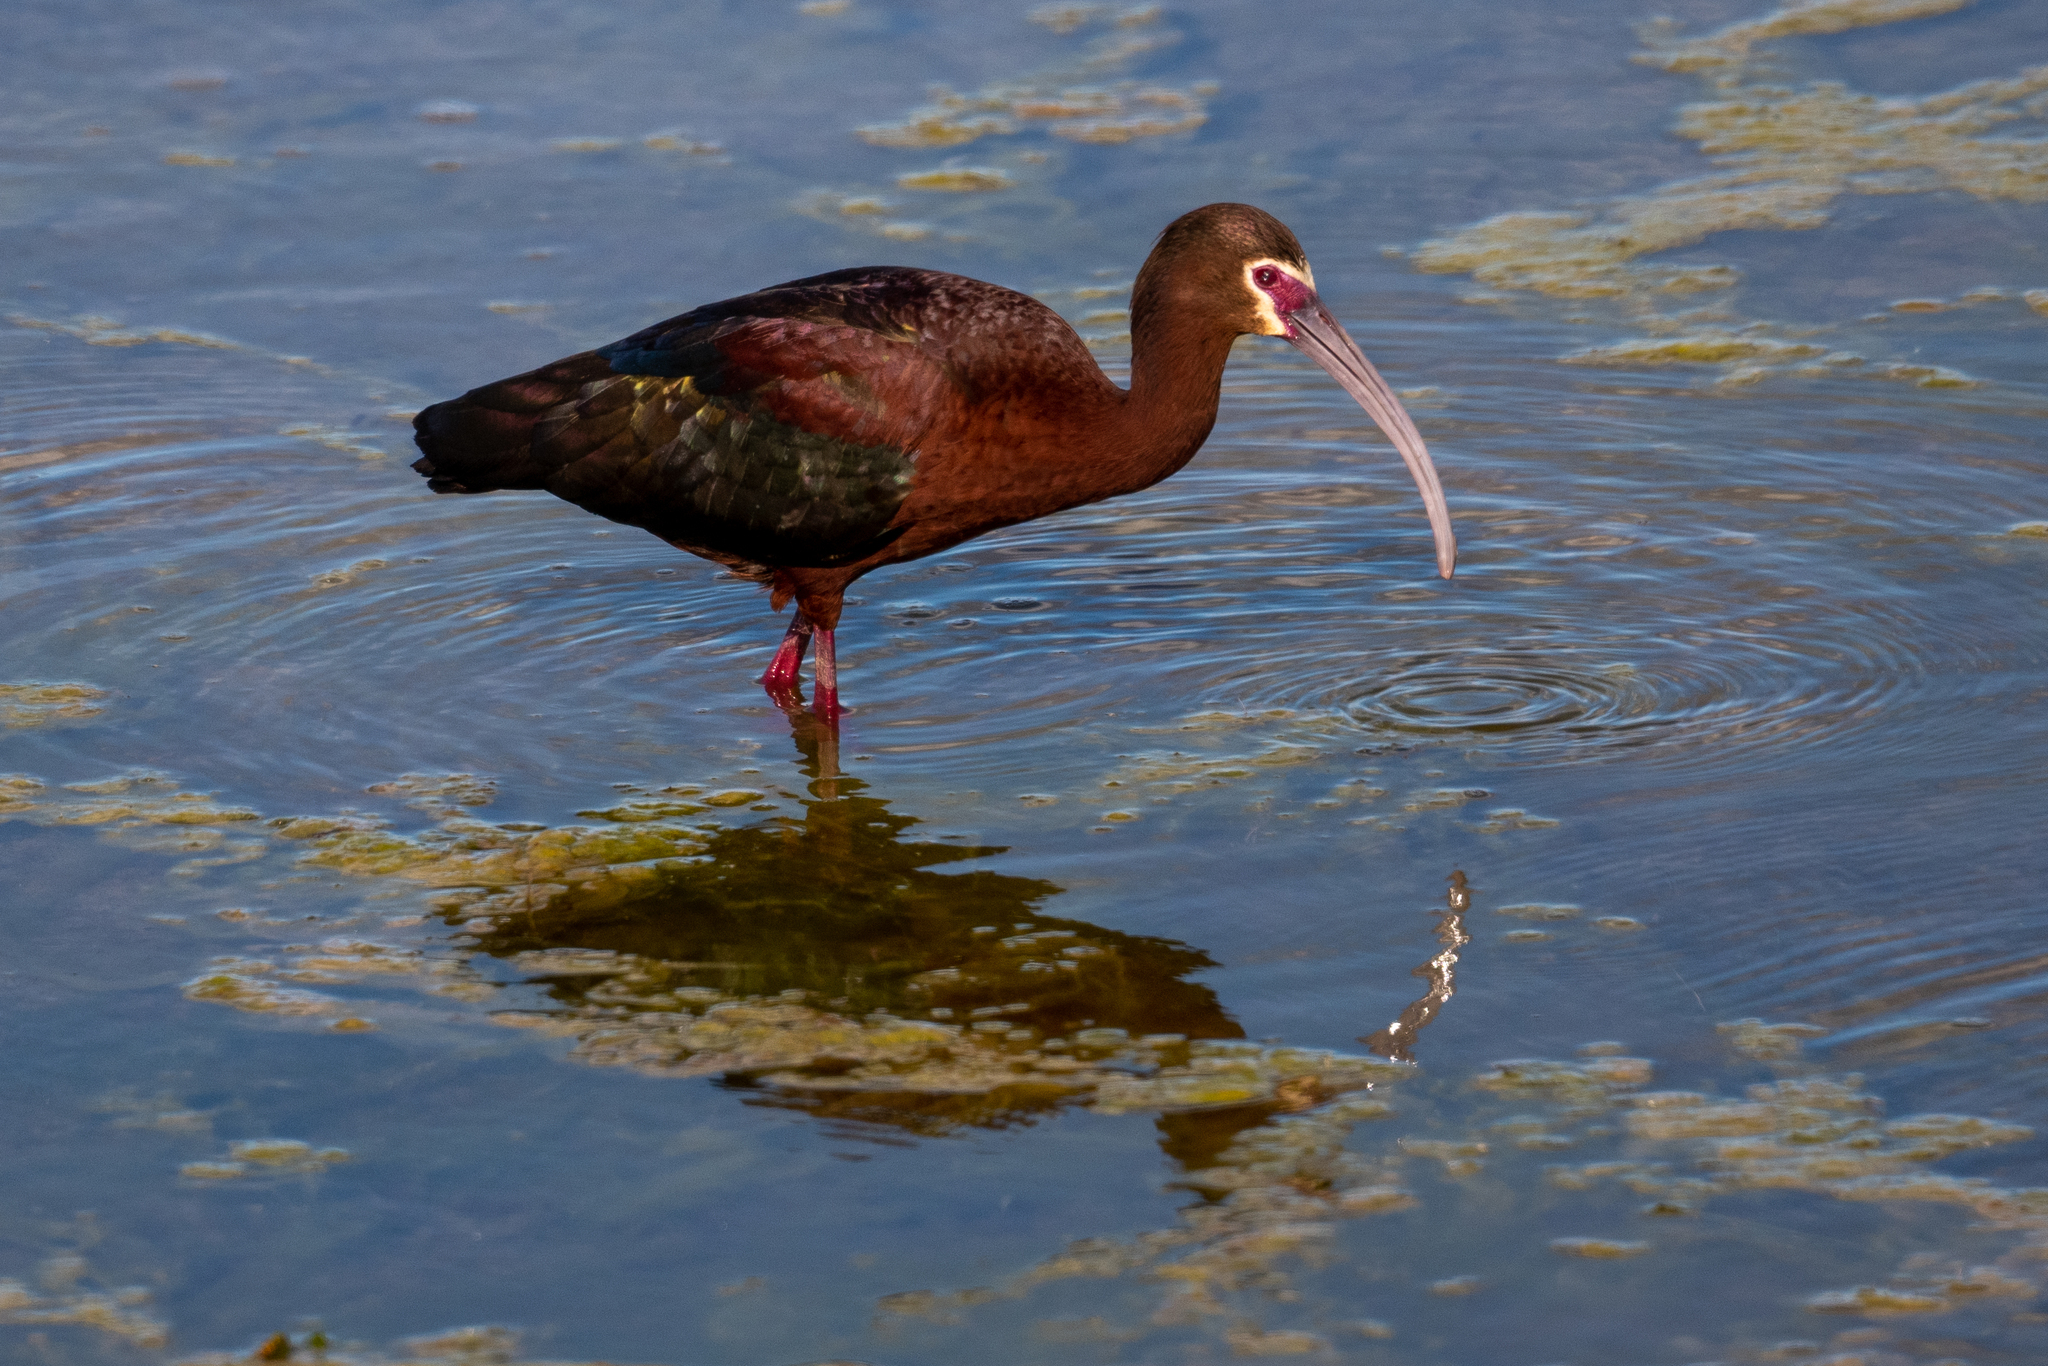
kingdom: Animalia
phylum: Chordata
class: Aves
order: Pelecaniformes
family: Threskiornithidae
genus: Plegadis
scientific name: Plegadis chihi
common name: White-faced ibis
